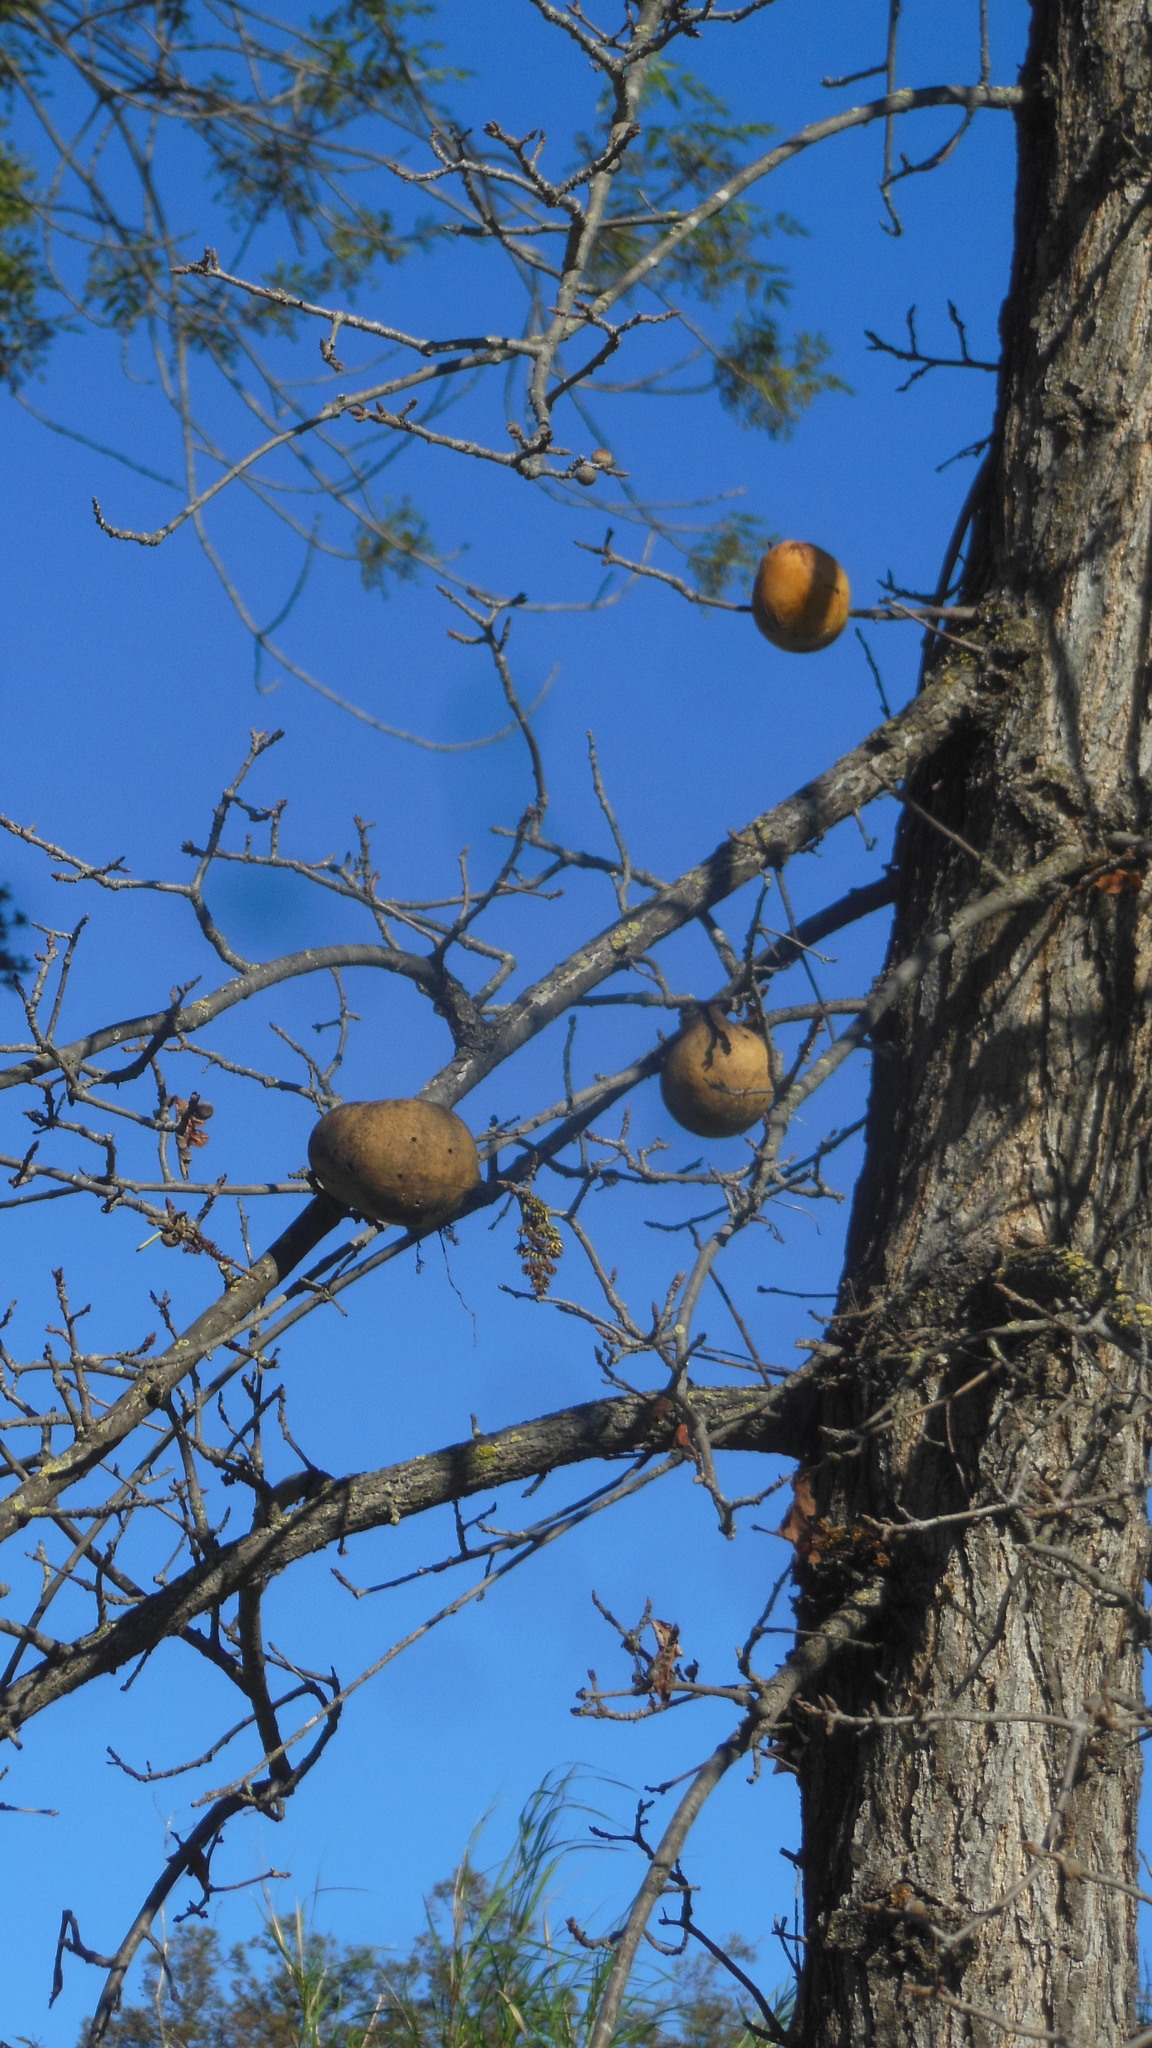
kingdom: Animalia
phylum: Arthropoda
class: Insecta
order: Hymenoptera
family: Cynipidae
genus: Andricus
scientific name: Andricus quercuscalifornicus
